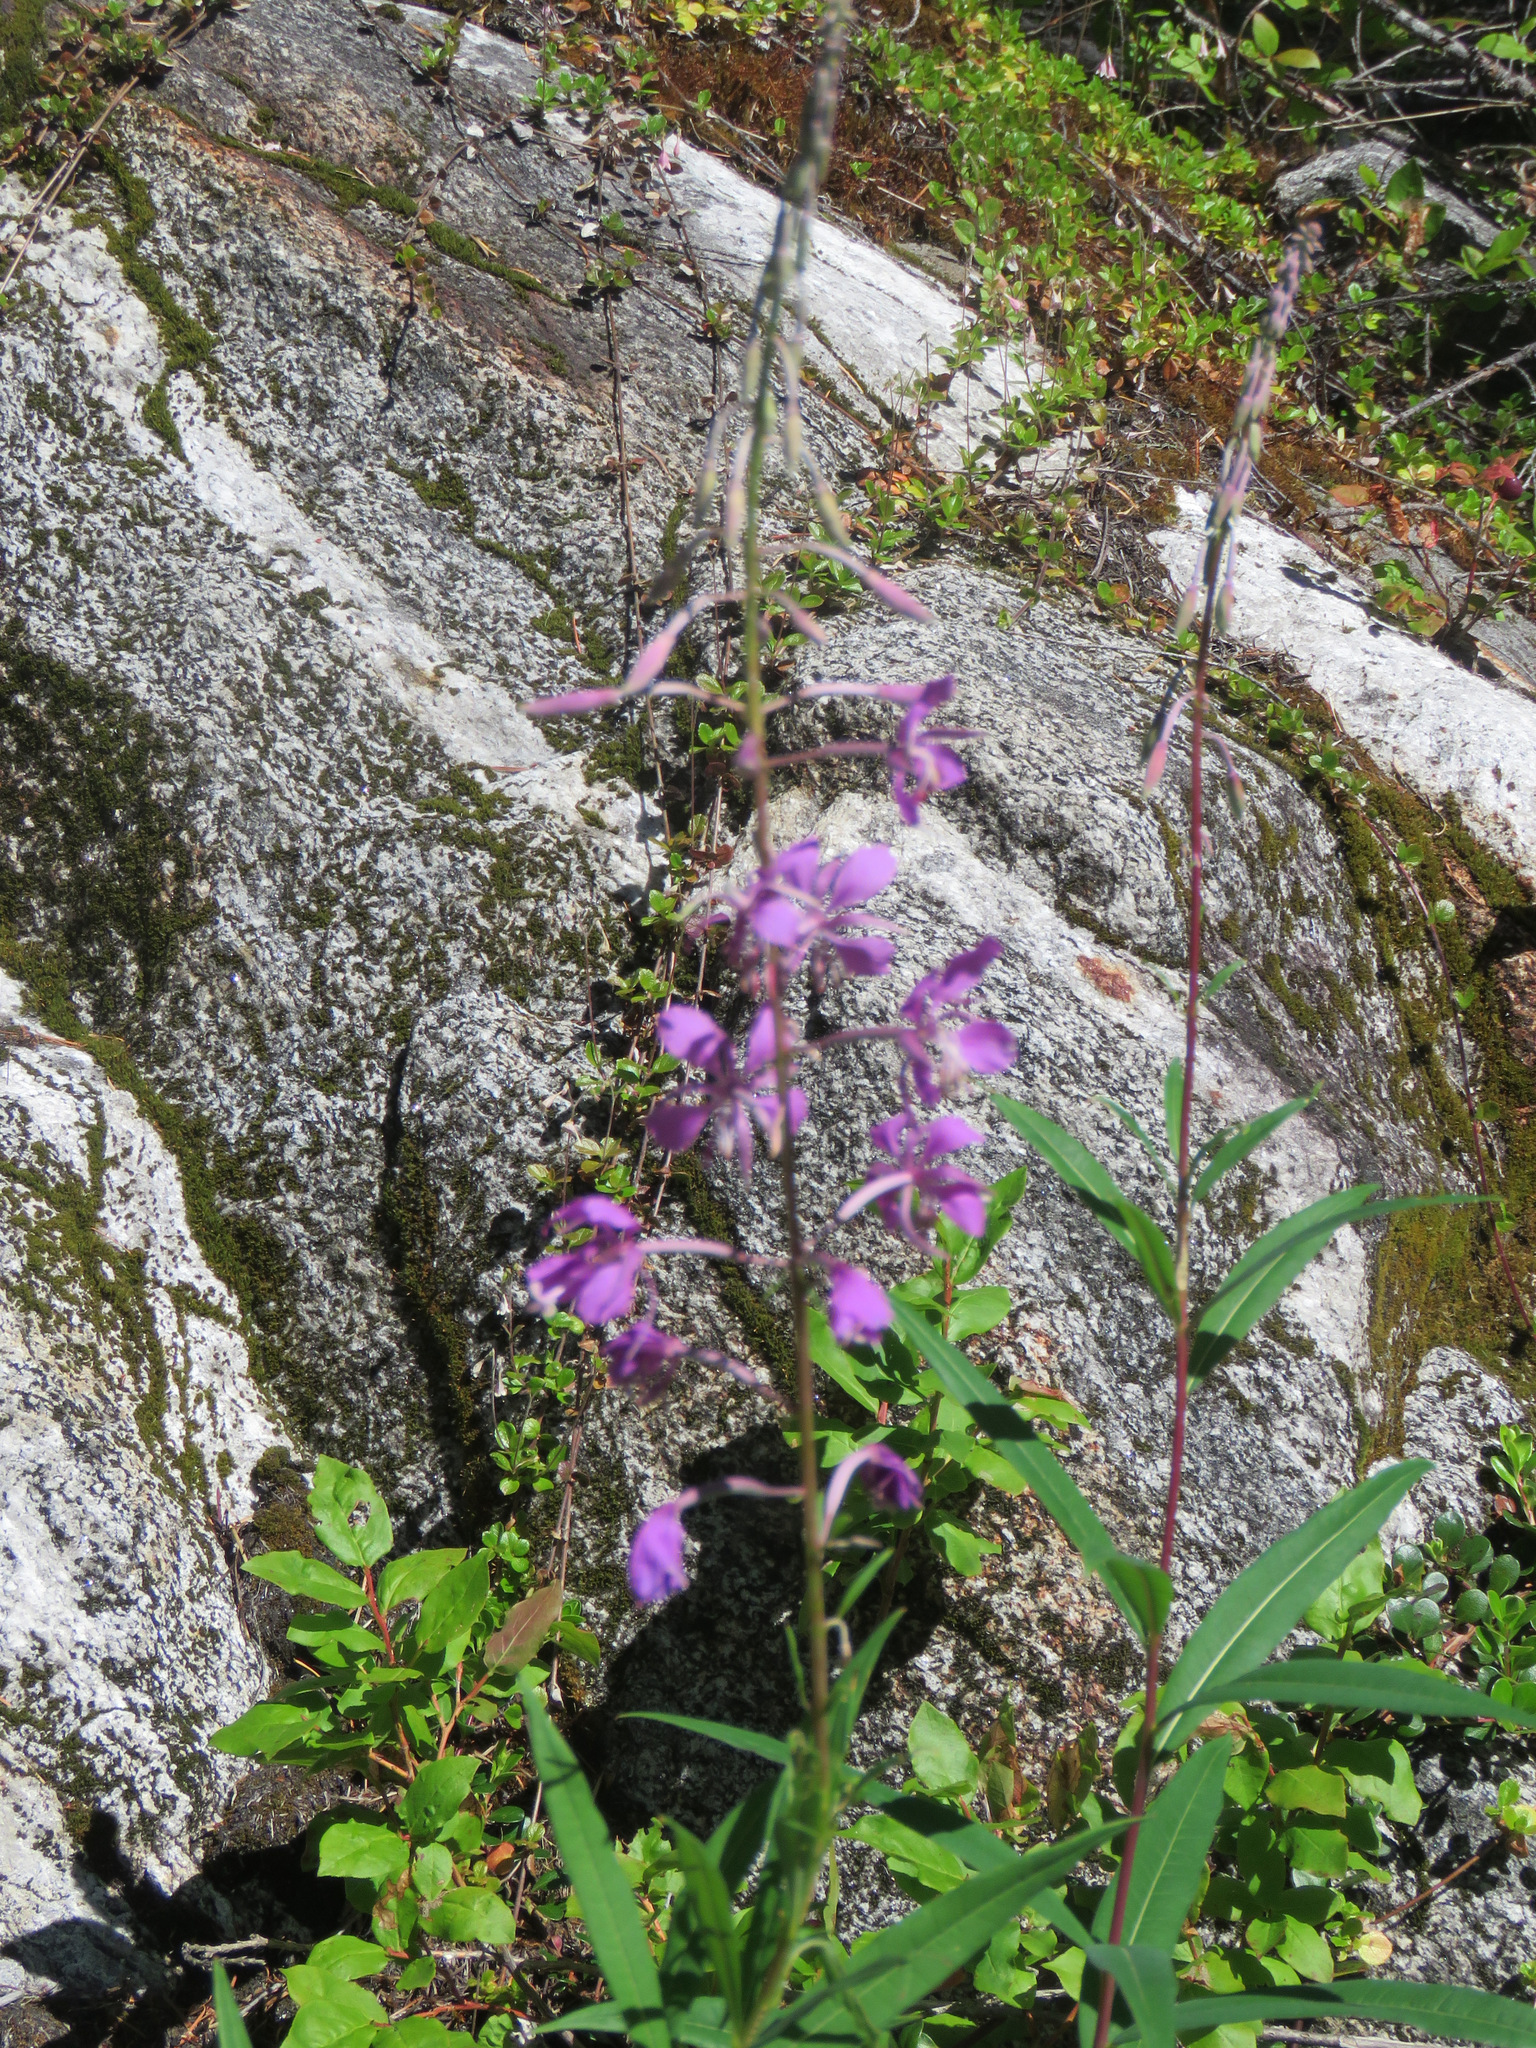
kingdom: Plantae
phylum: Tracheophyta
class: Magnoliopsida
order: Myrtales
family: Onagraceae
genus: Chamaenerion
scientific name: Chamaenerion angustifolium
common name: Fireweed
